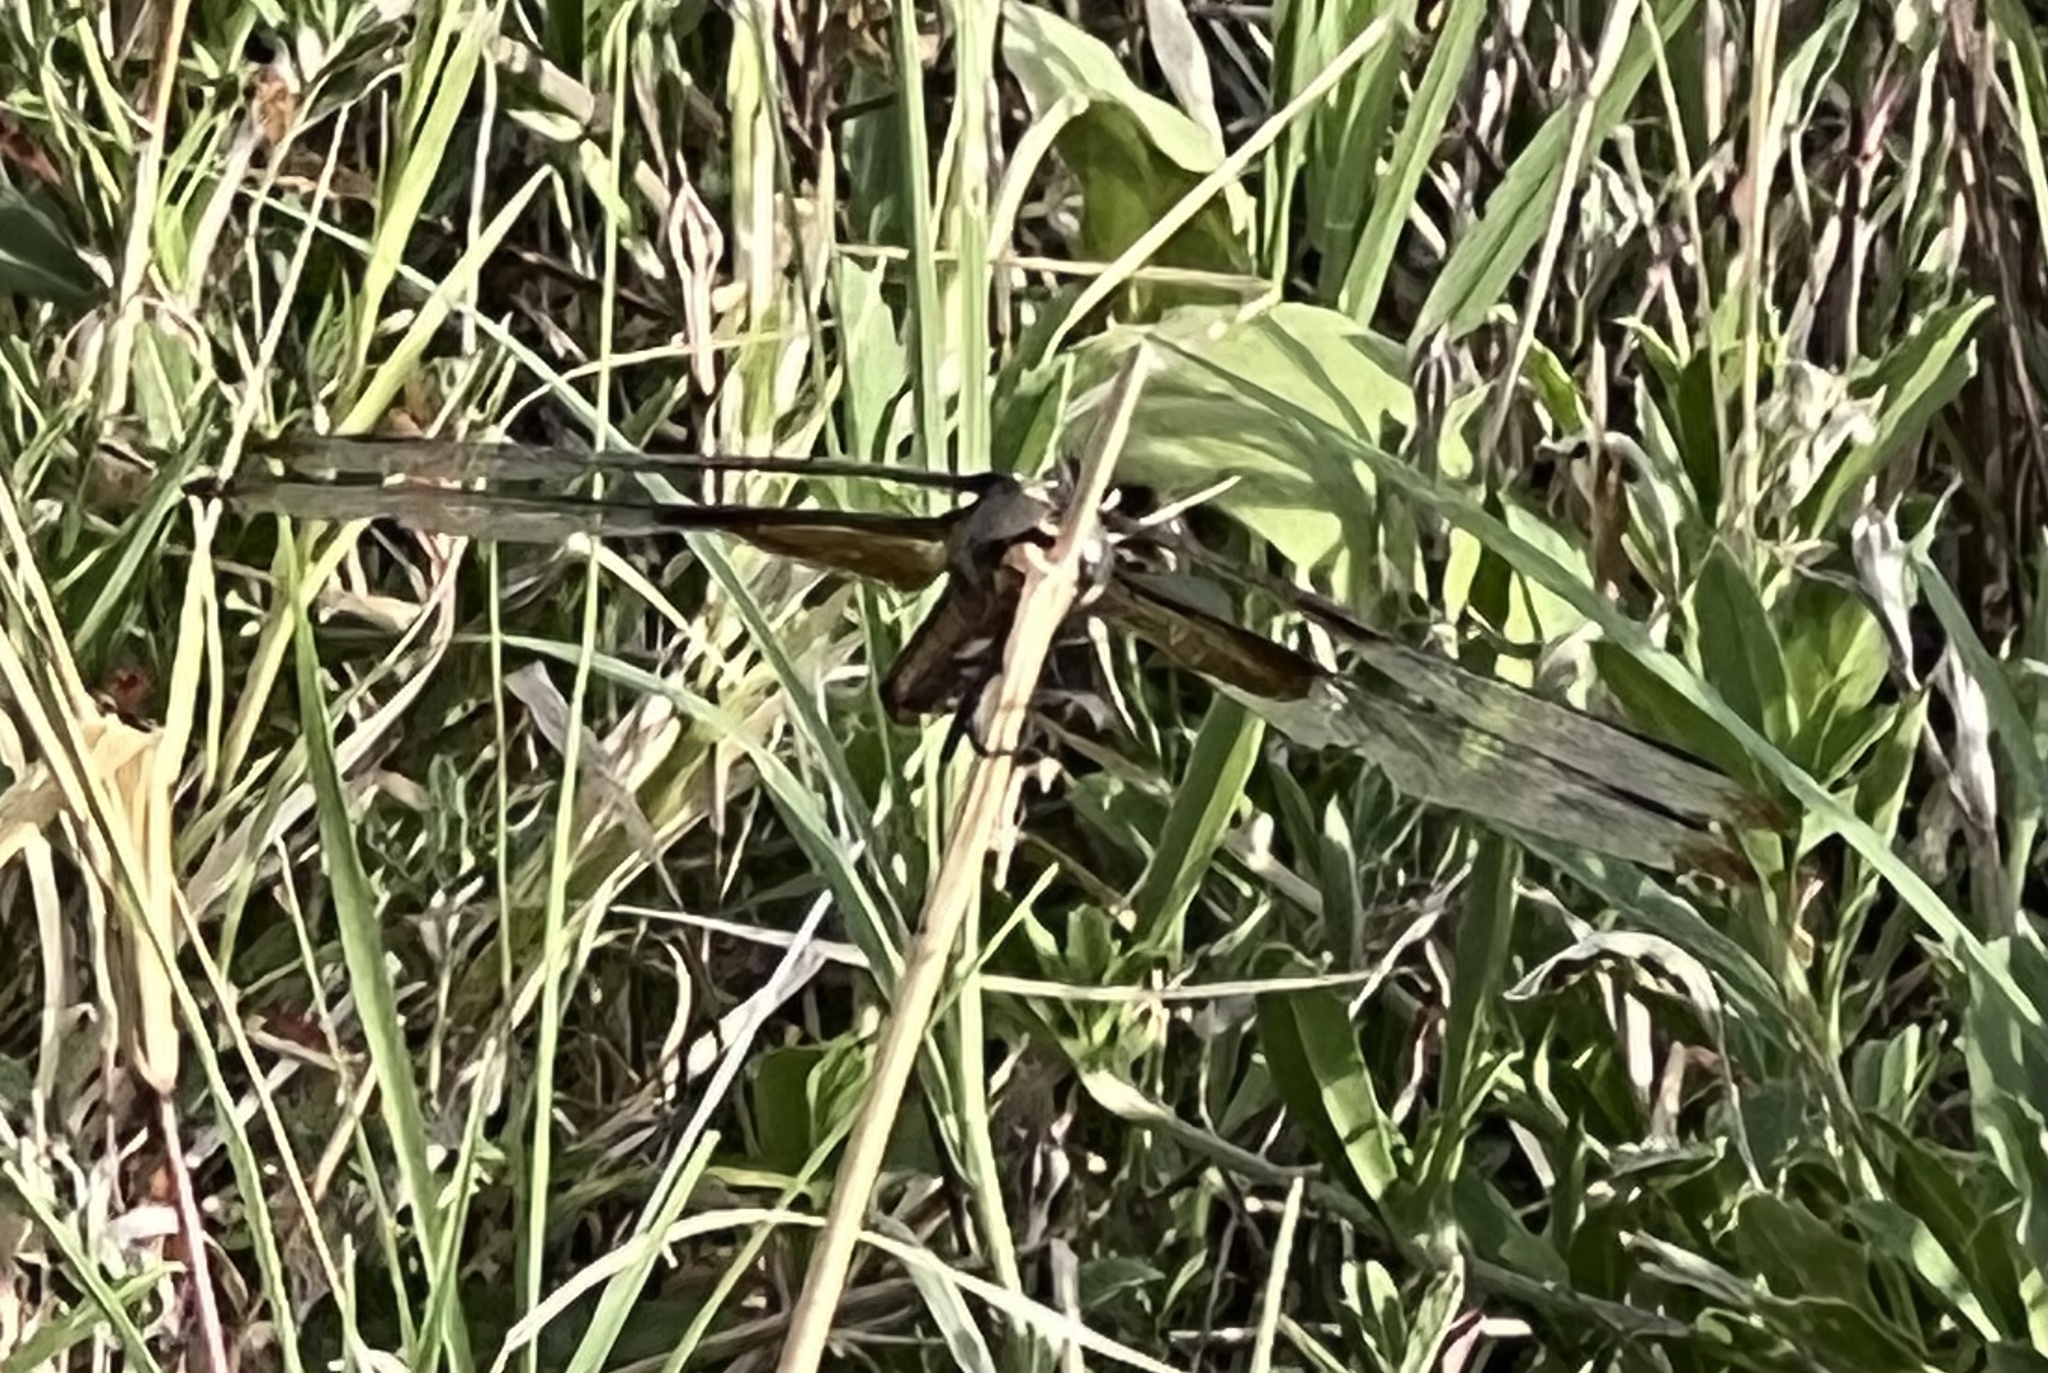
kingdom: Animalia
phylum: Arthropoda
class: Insecta
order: Odonata
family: Libellulidae
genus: Libellula
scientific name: Libellula luctuosa
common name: Widow skimmer
